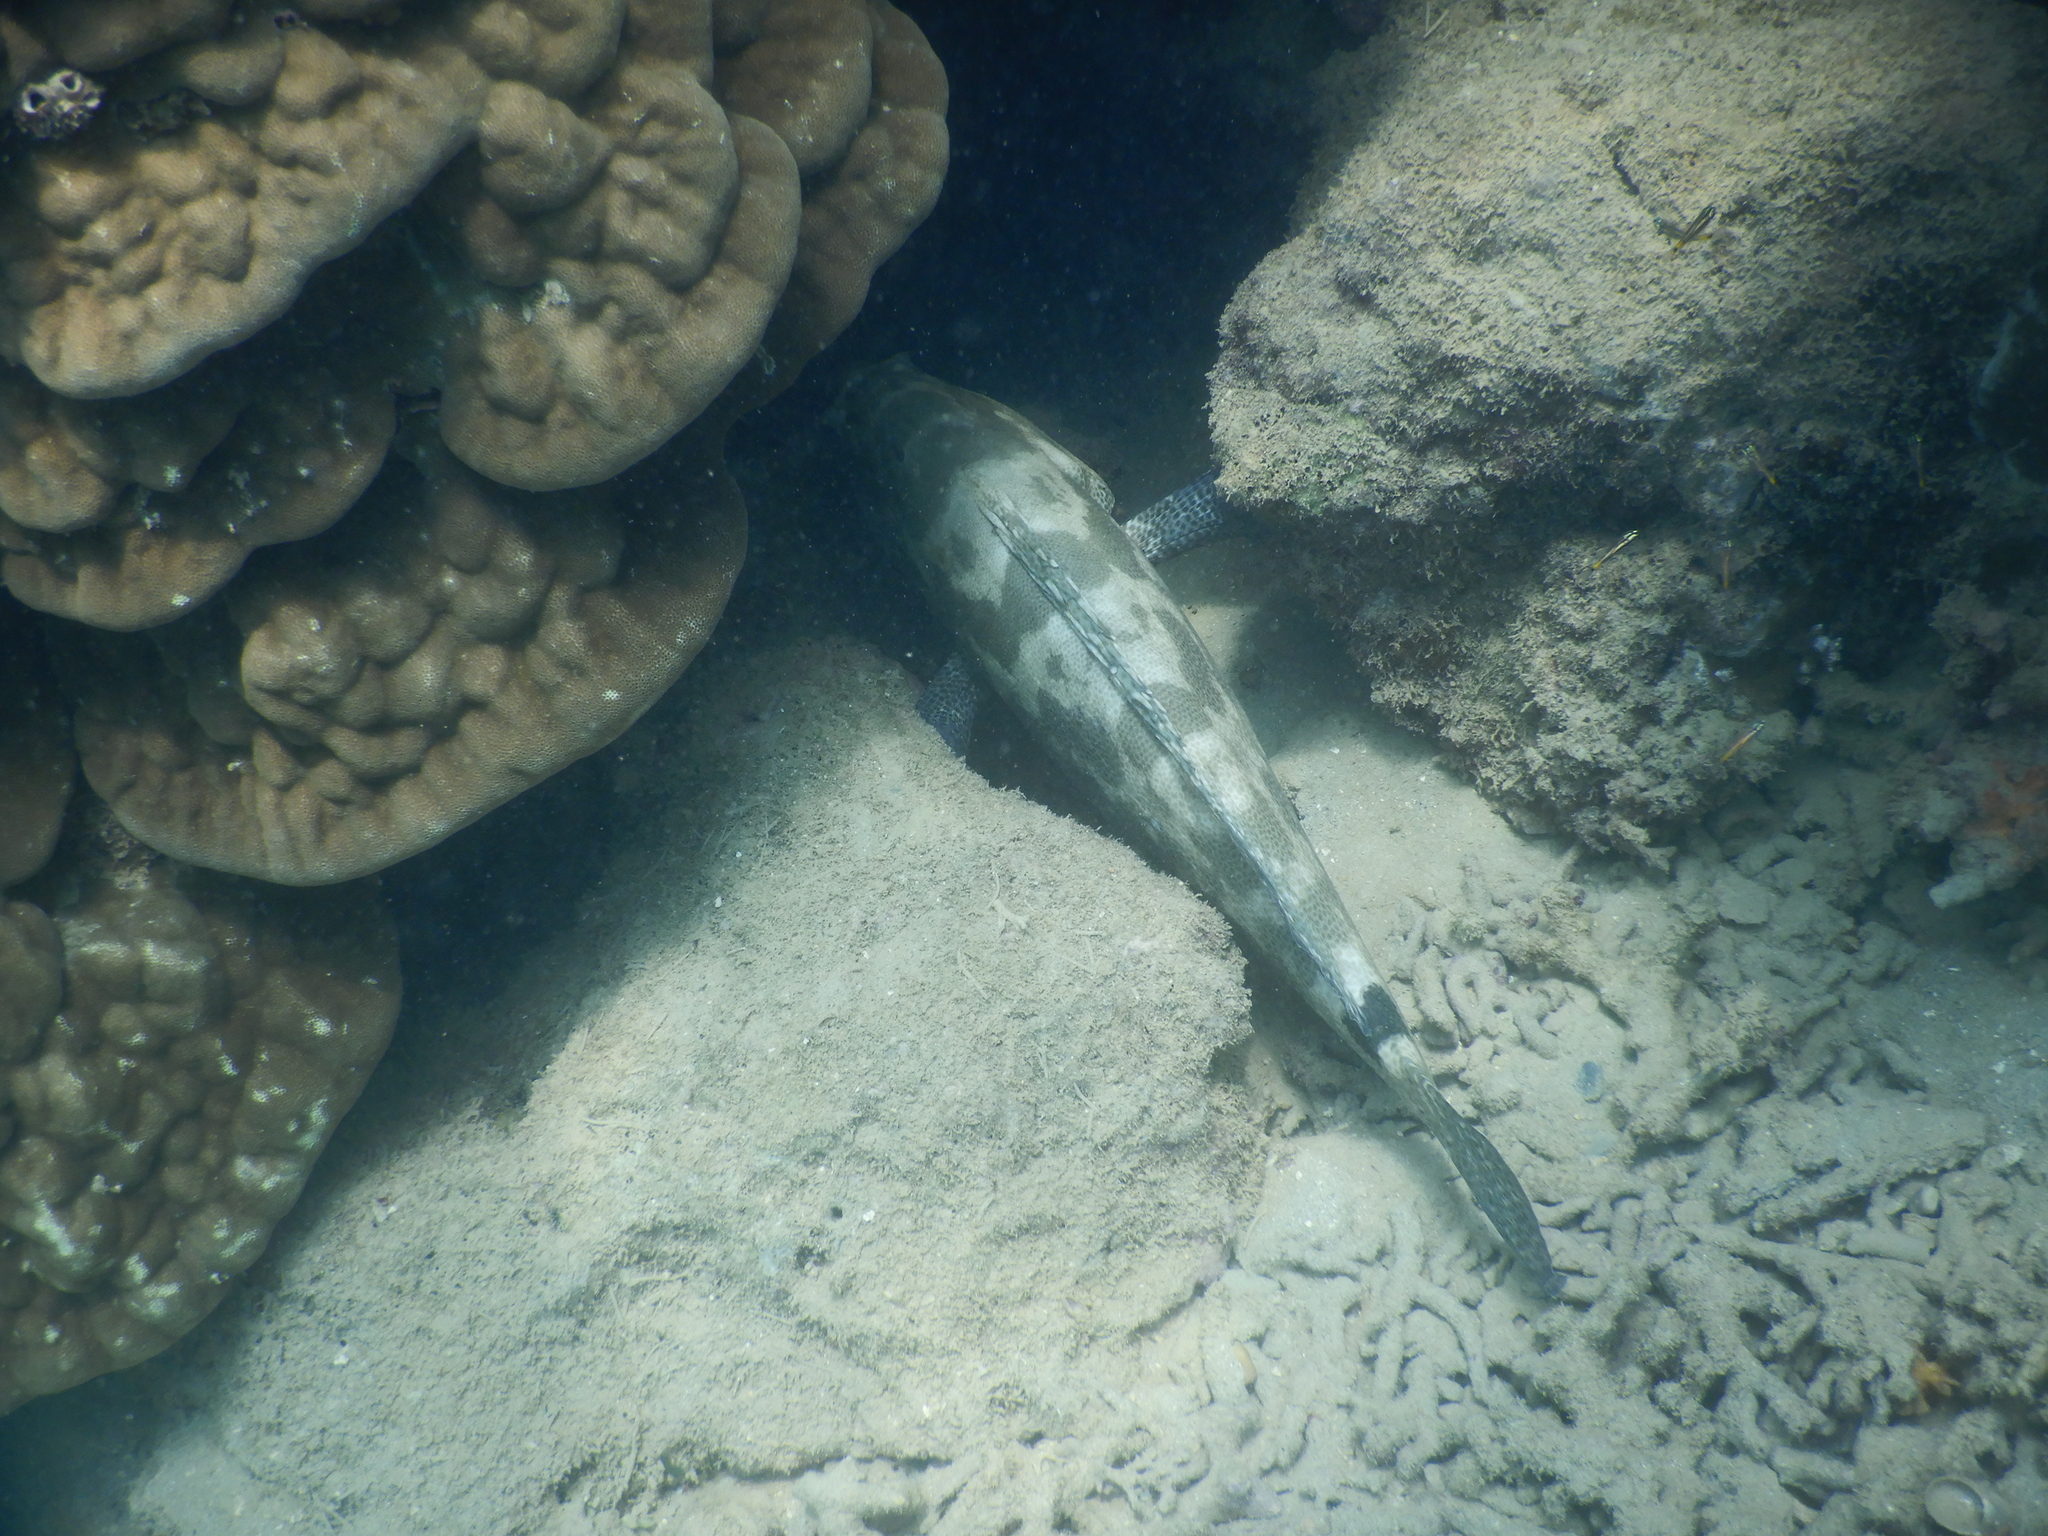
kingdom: Animalia
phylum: Chordata
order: Perciformes
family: Serranidae
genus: Epinephelus
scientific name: Epinephelus polyphekadion
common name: Camouflage grouper
